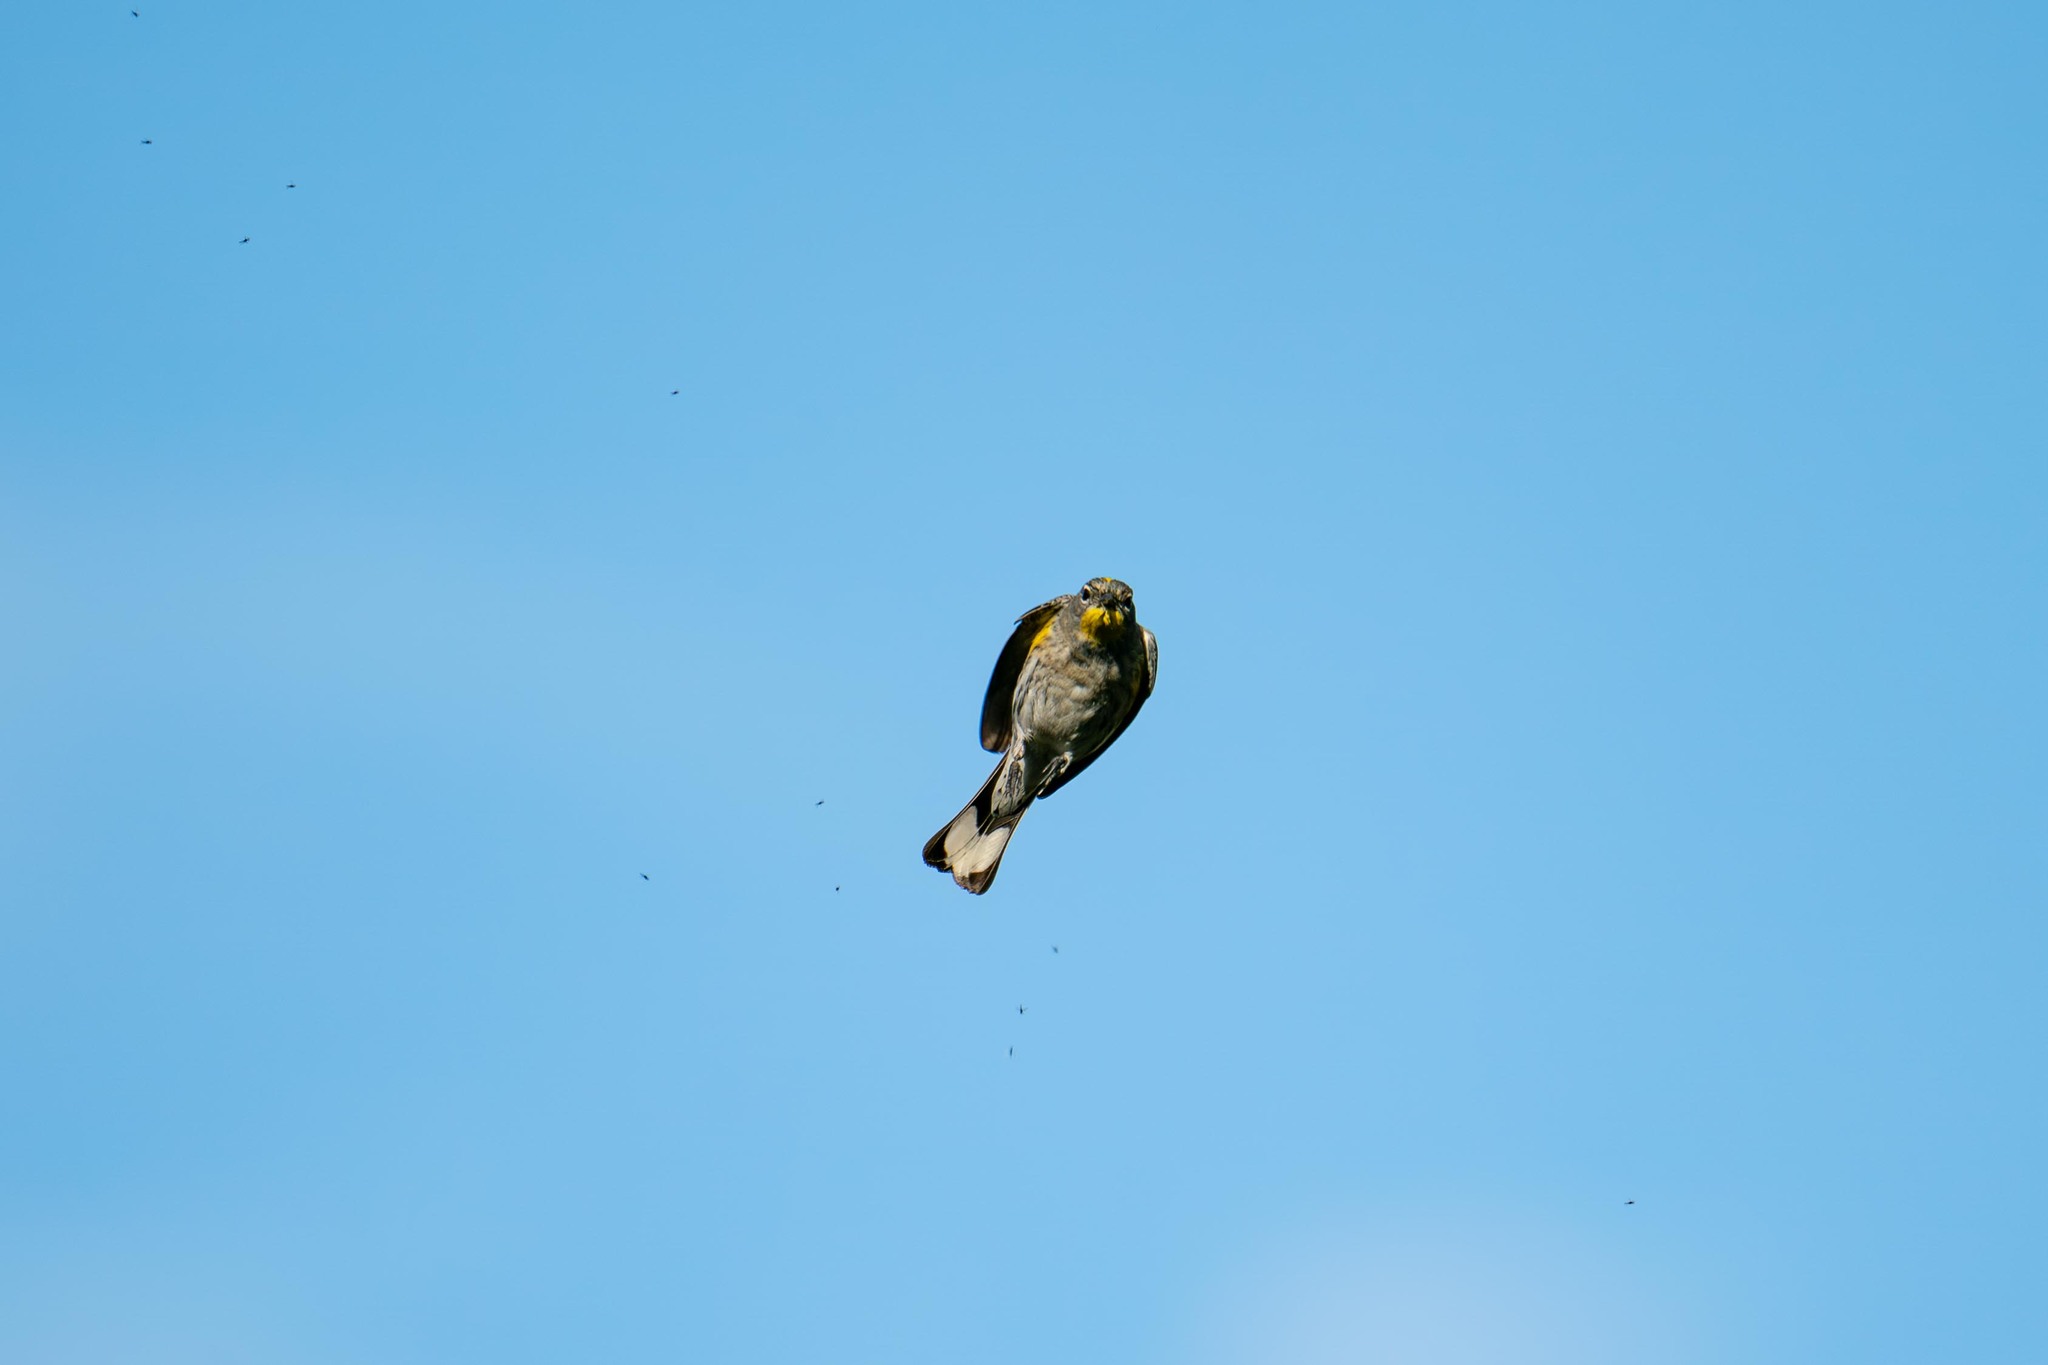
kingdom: Animalia
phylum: Chordata
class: Aves
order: Passeriformes
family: Parulidae
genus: Setophaga
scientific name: Setophaga coronata
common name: Myrtle warbler
